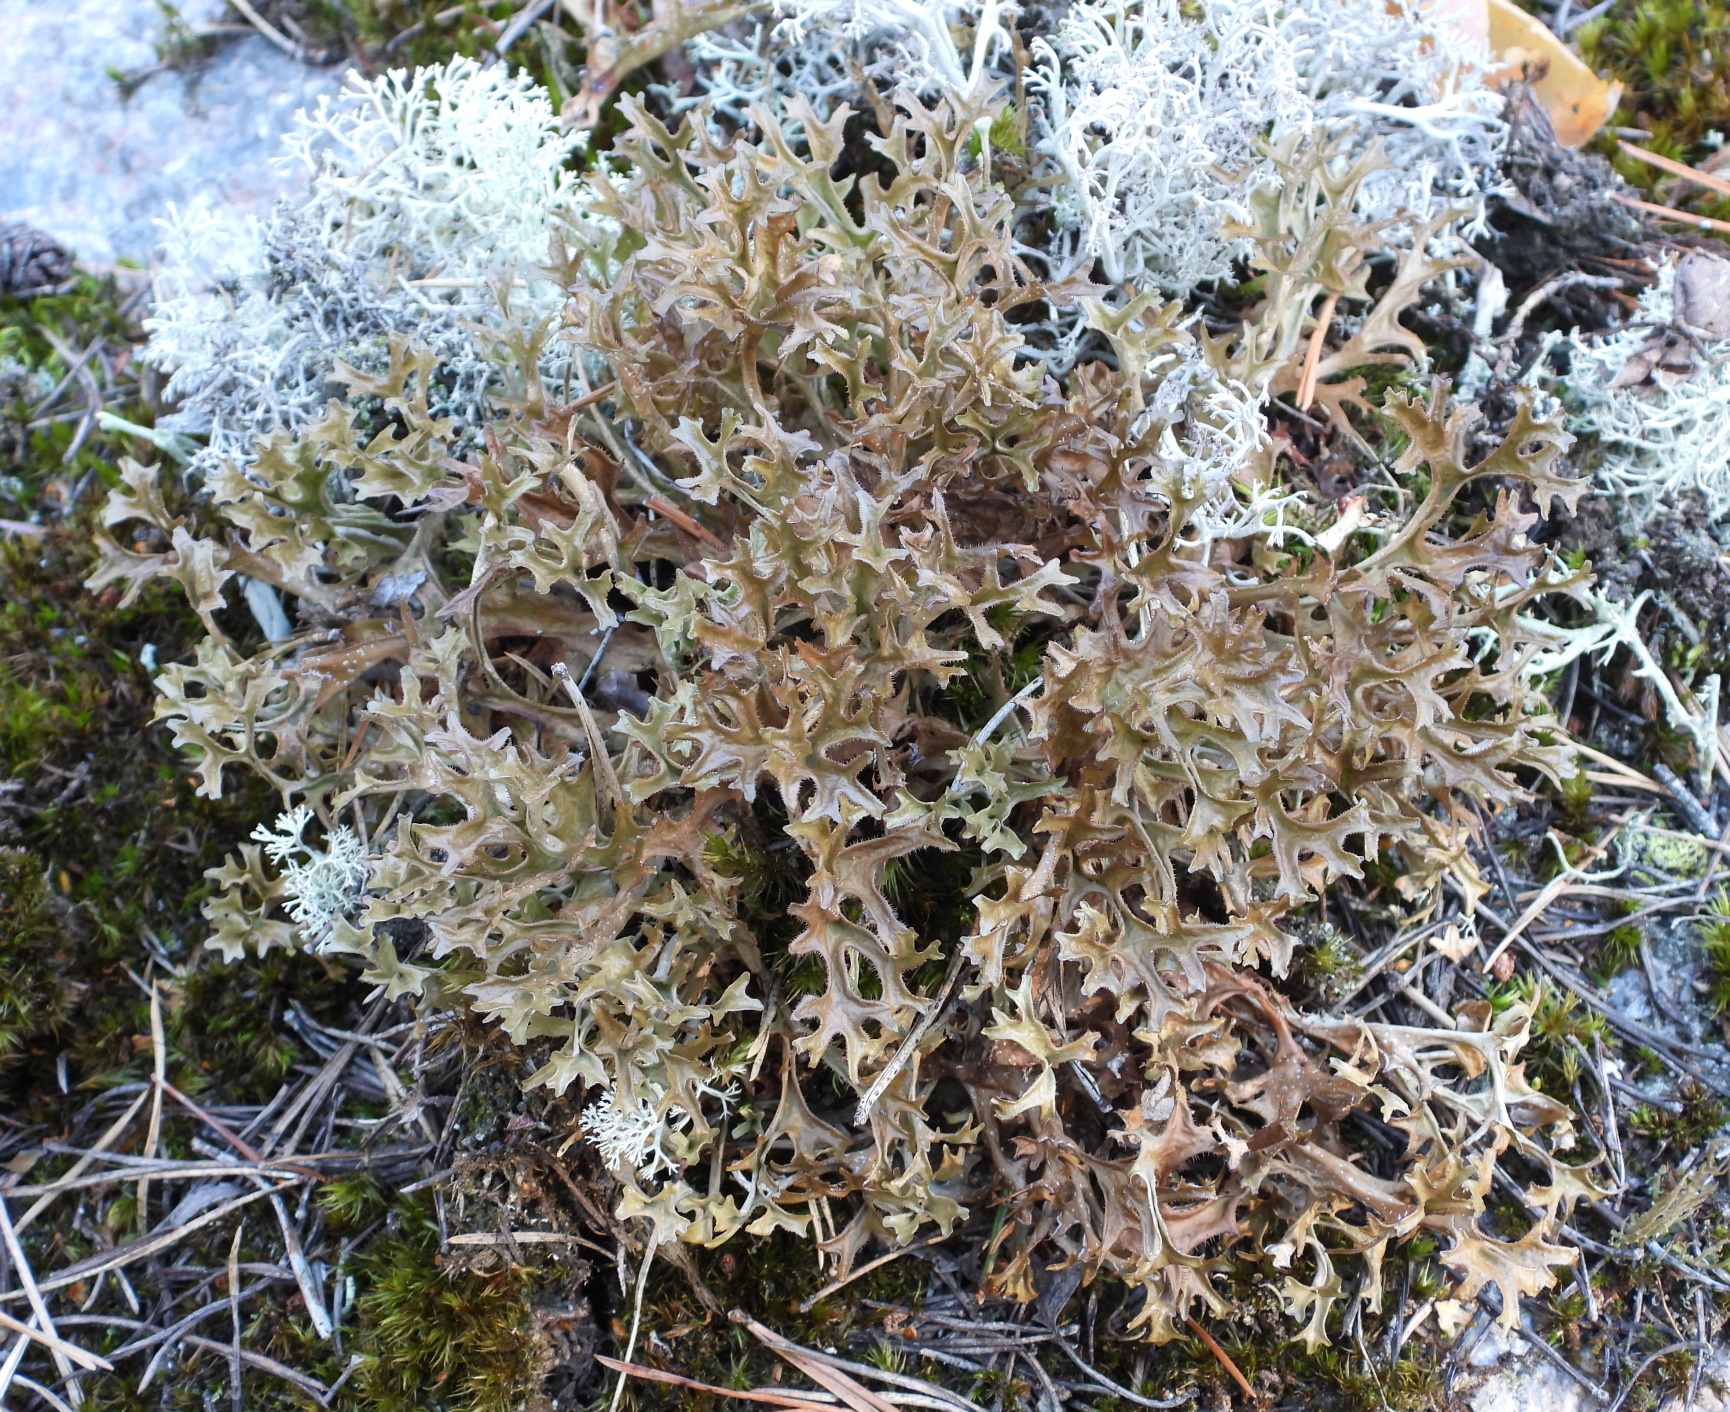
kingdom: Fungi
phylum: Ascomycota
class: Lecanoromycetes
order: Lecanorales
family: Parmeliaceae
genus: Cetraria
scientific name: Cetraria islandica
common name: Iceland lichen
